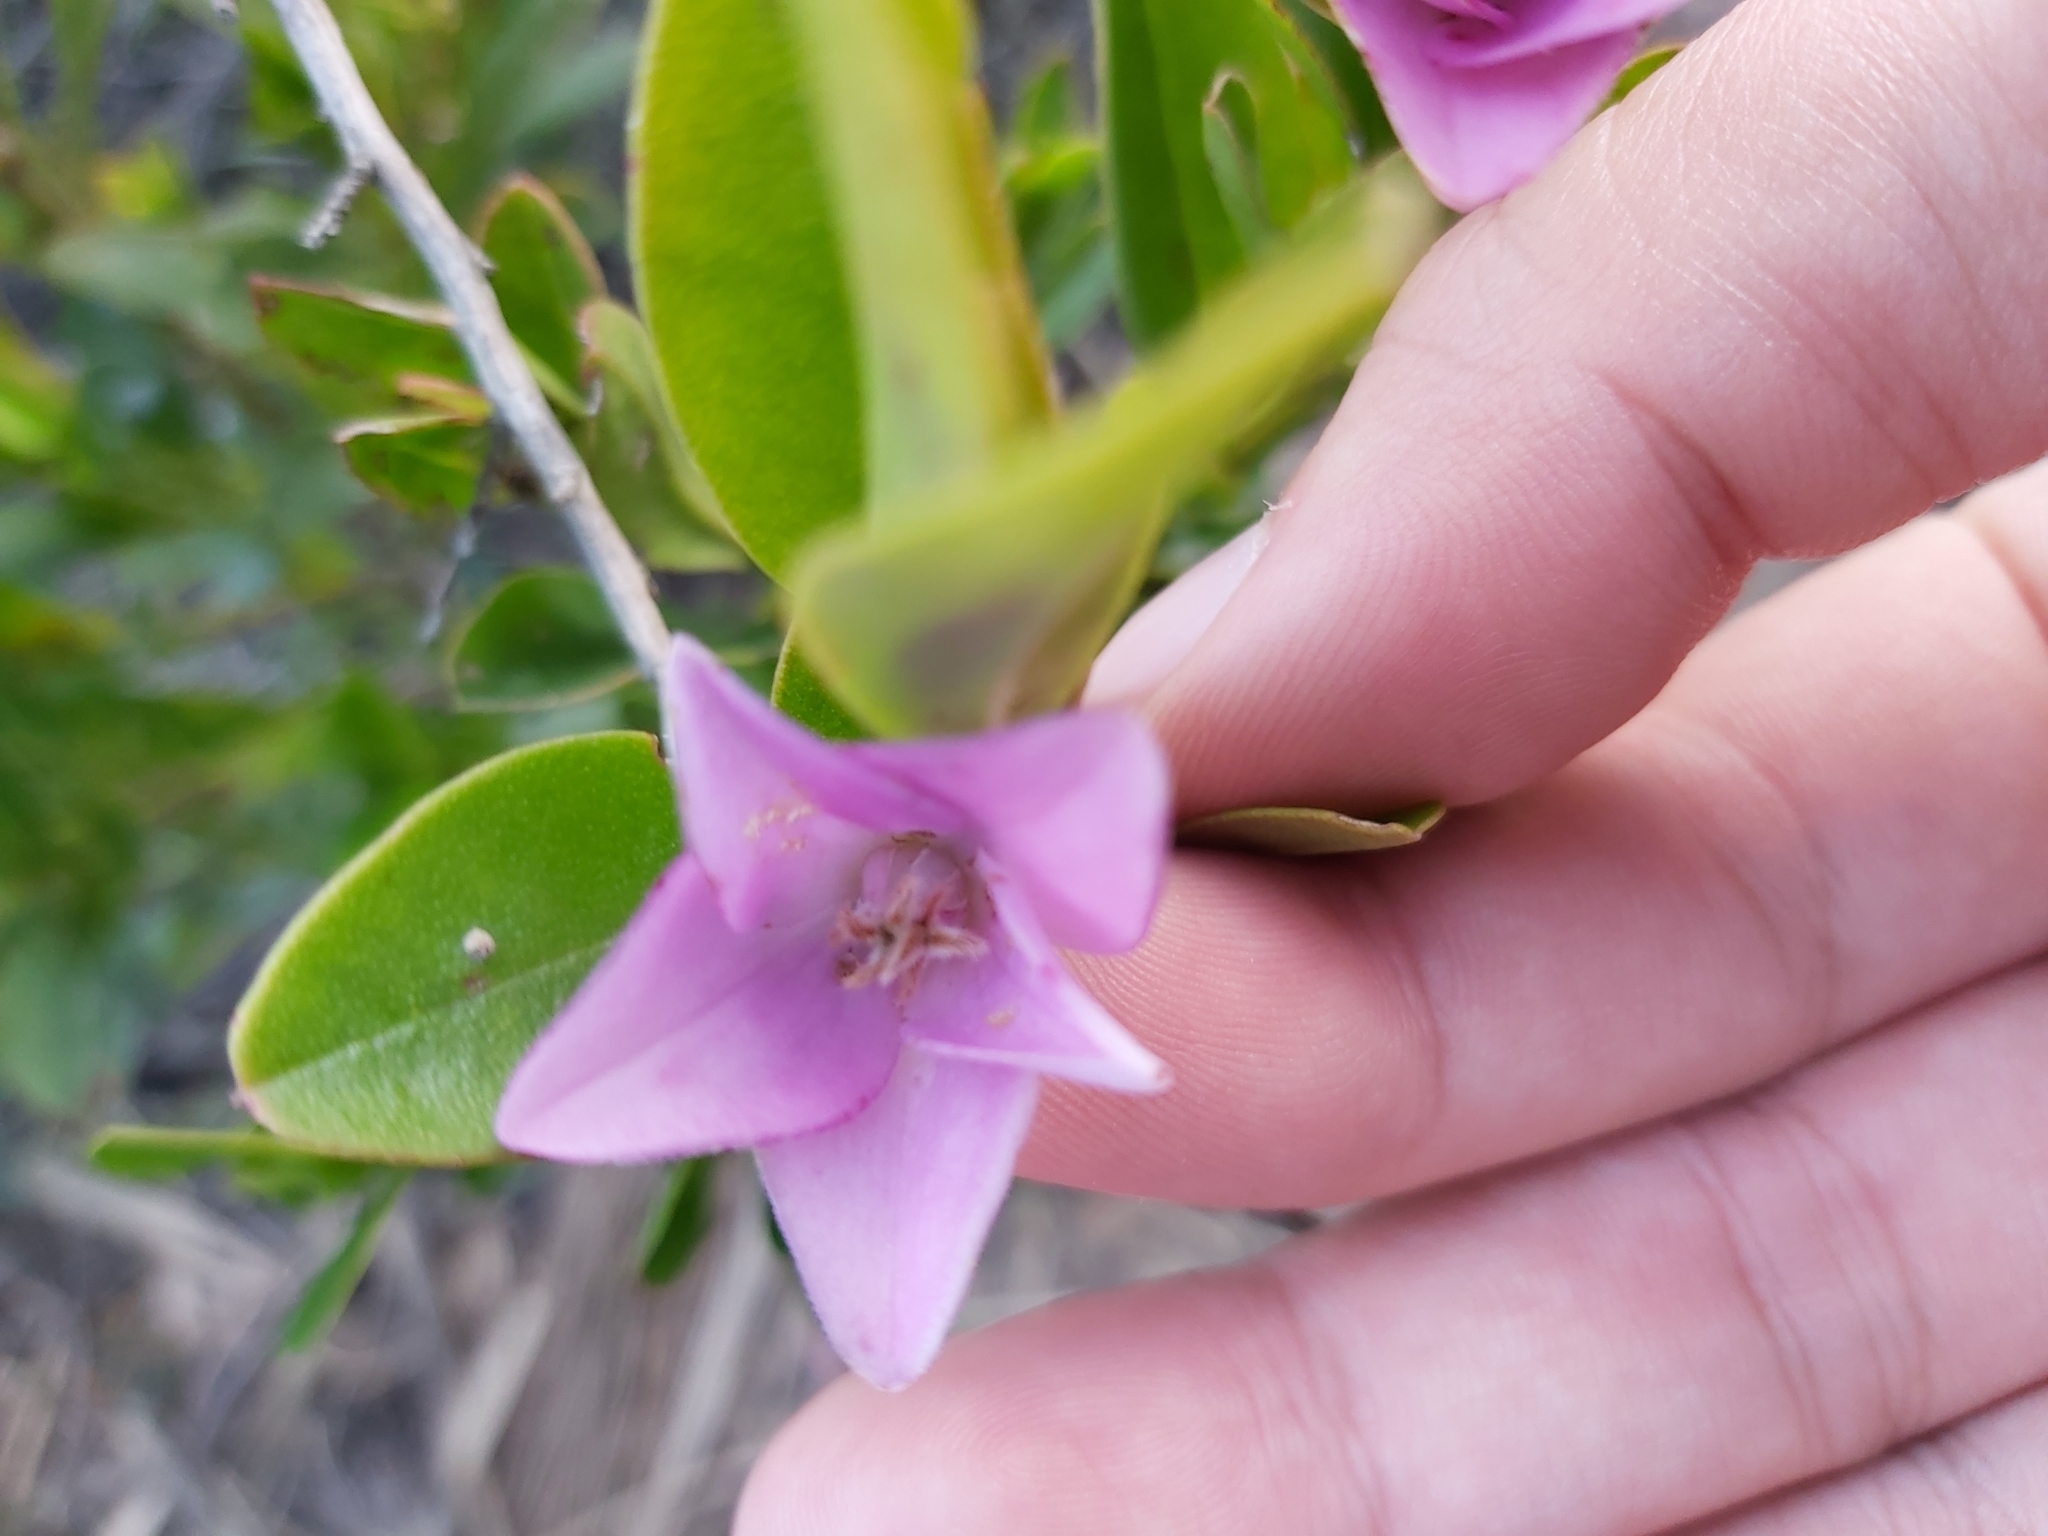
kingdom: Plantae
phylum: Tracheophyta
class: Magnoliopsida
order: Sapindales
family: Rutaceae
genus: Crowea
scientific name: Crowea saligna
